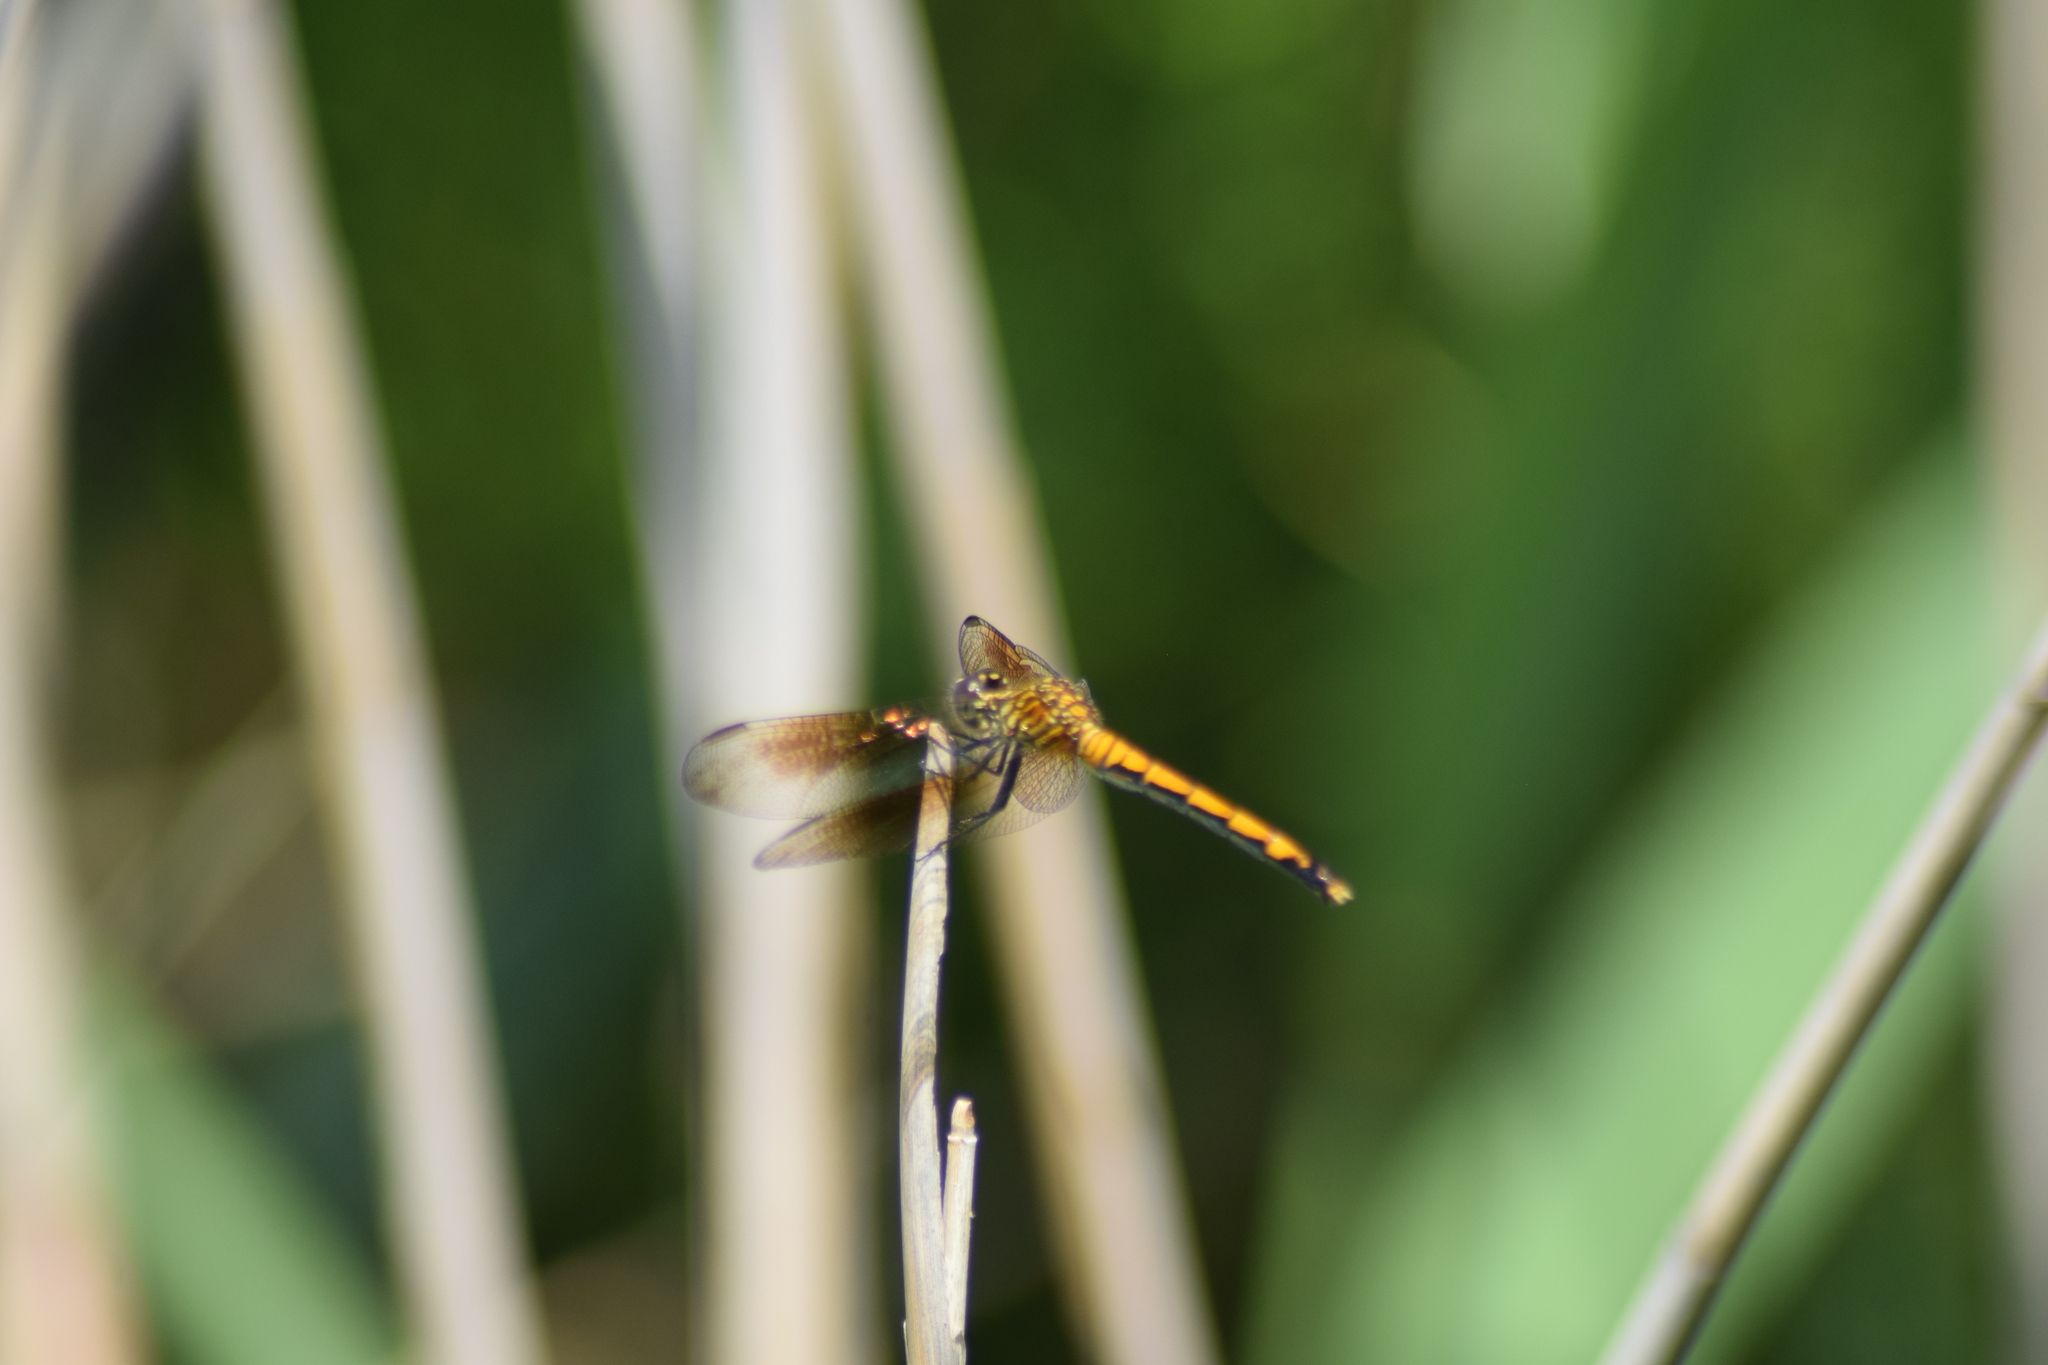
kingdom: Animalia
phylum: Arthropoda
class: Insecta
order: Odonata
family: Libellulidae
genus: Erythrodiplax
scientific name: Erythrodiplax berenice
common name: Seaside dragonlet
